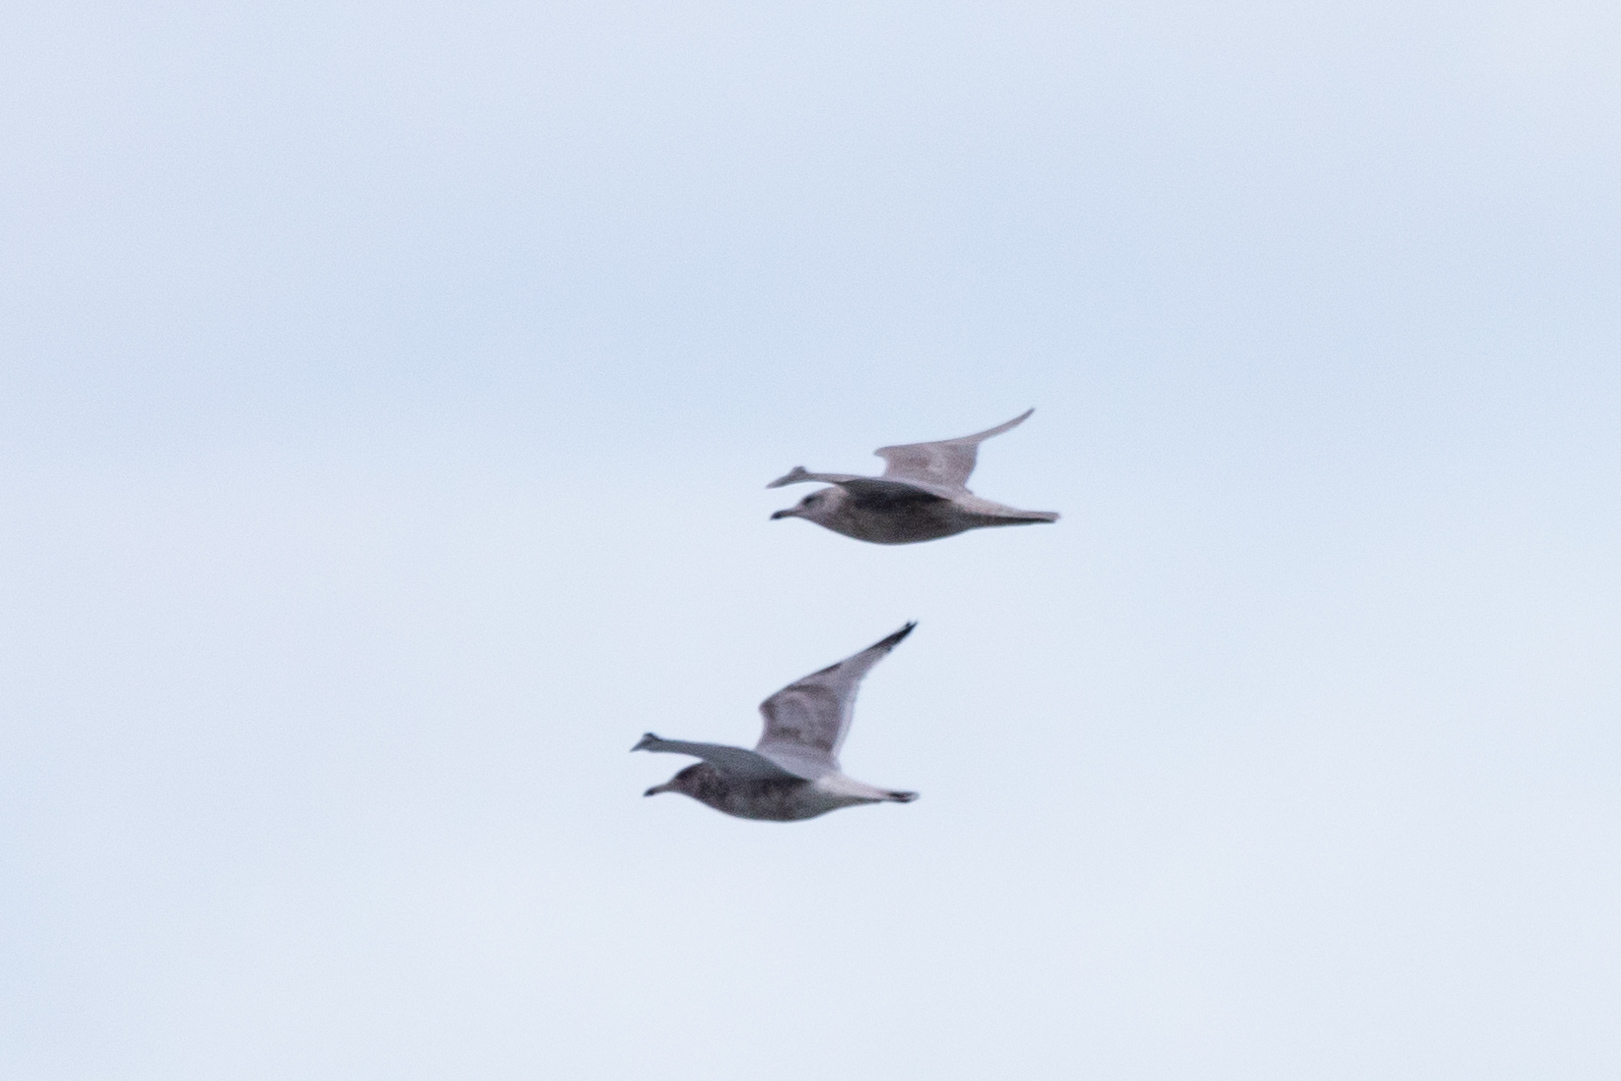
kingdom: Animalia
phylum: Chordata
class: Aves
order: Charadriiformes
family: Laridae
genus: Larus
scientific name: Larus glaucoides
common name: Iceland gull
